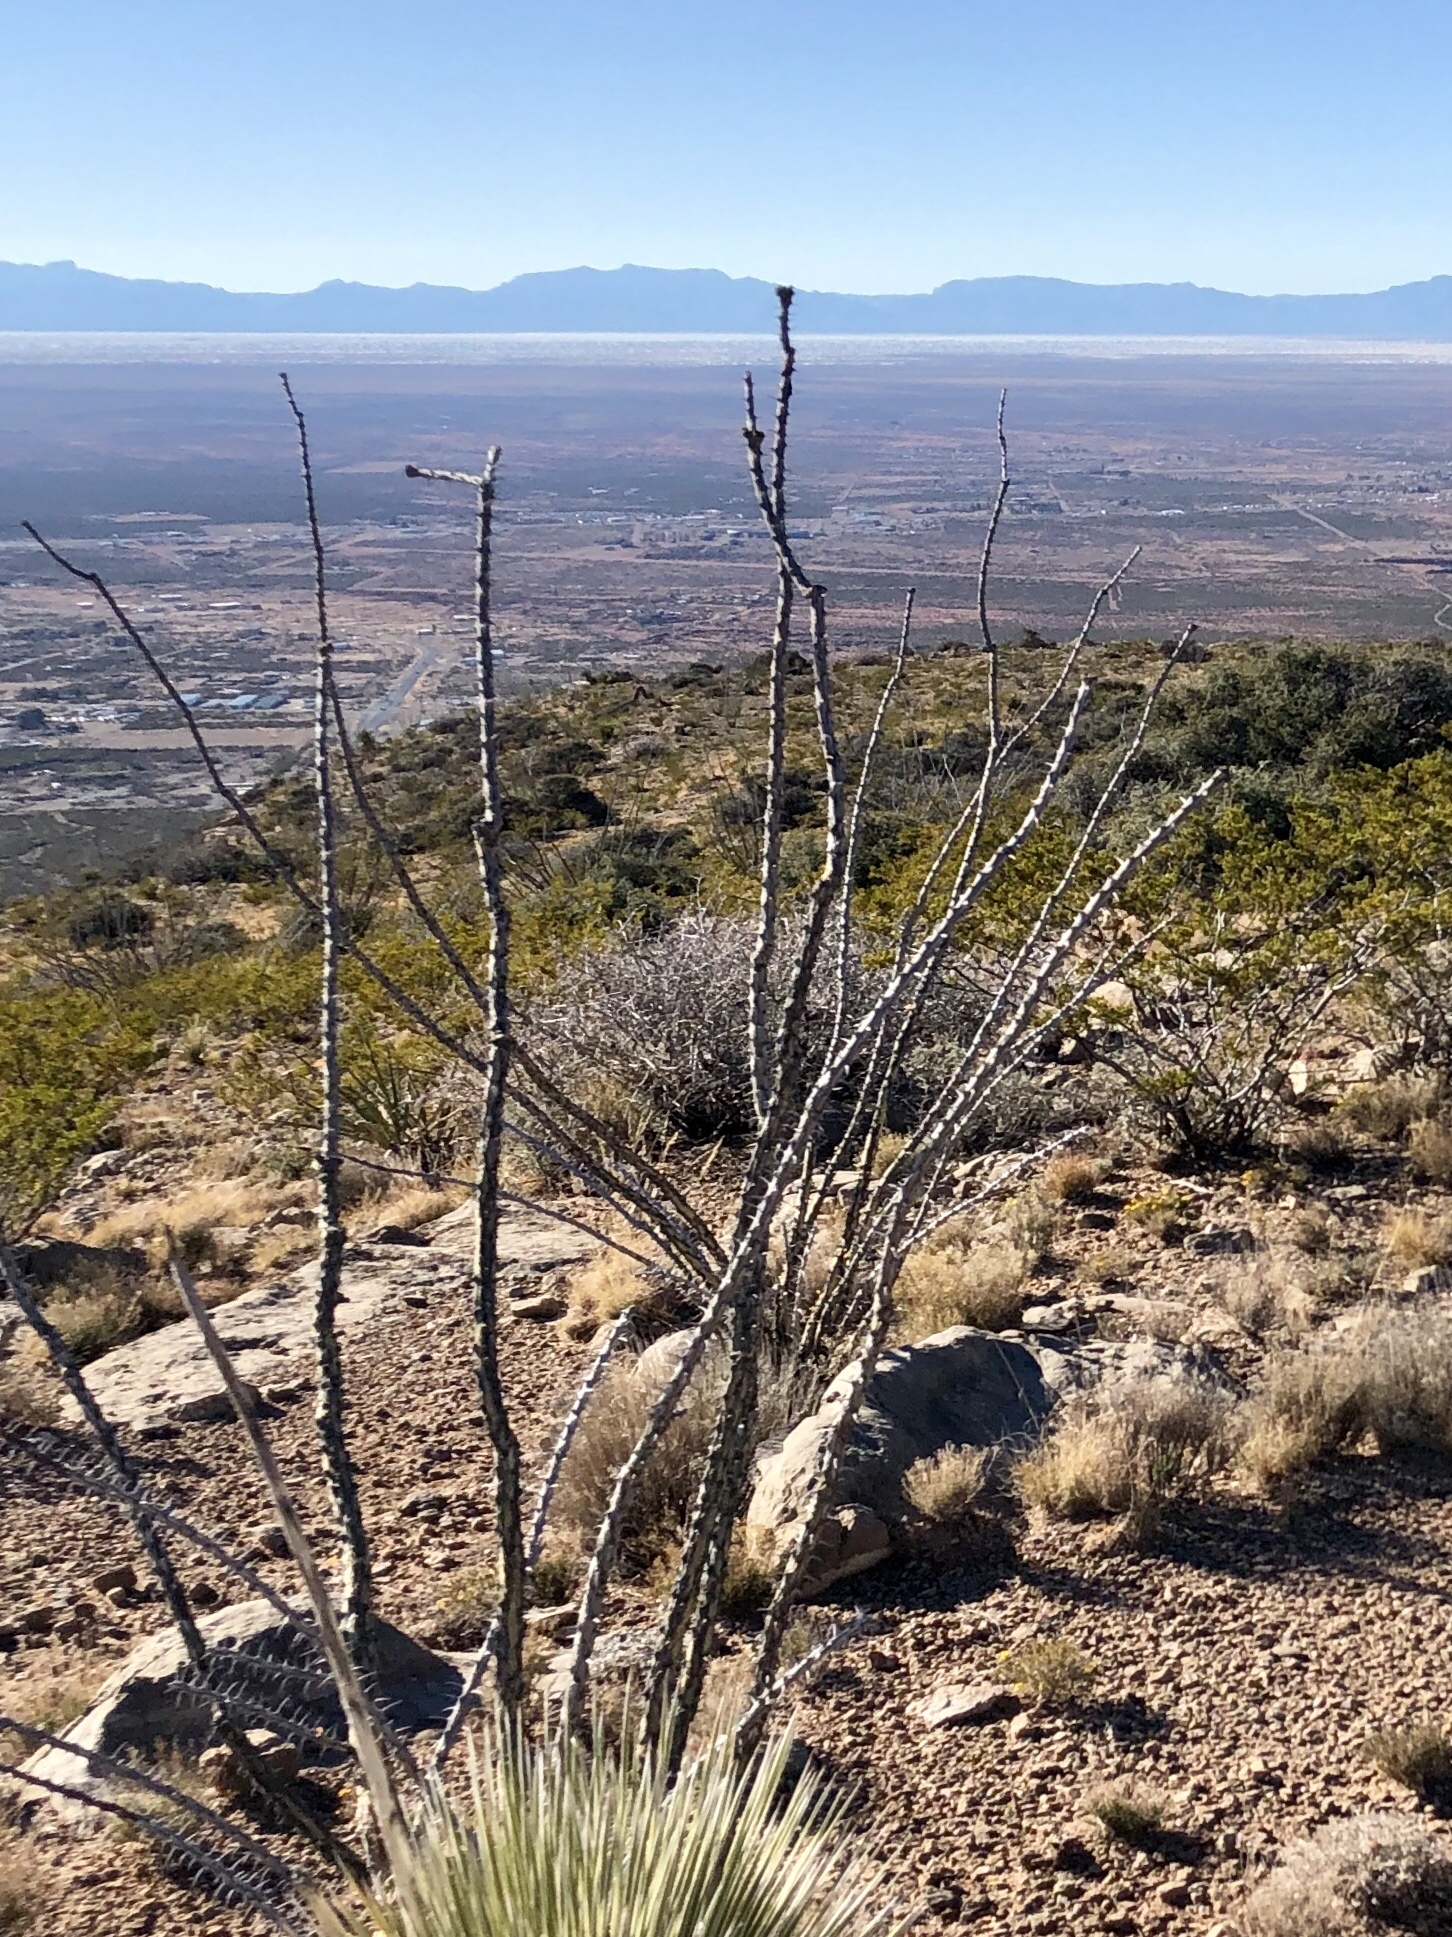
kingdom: Plantae
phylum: Tracheophyta
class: Magnoliopsida
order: Ericales
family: Fouquieriaceae
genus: Fouquieria
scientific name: Fouquieria splendens
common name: Vine-cactus
